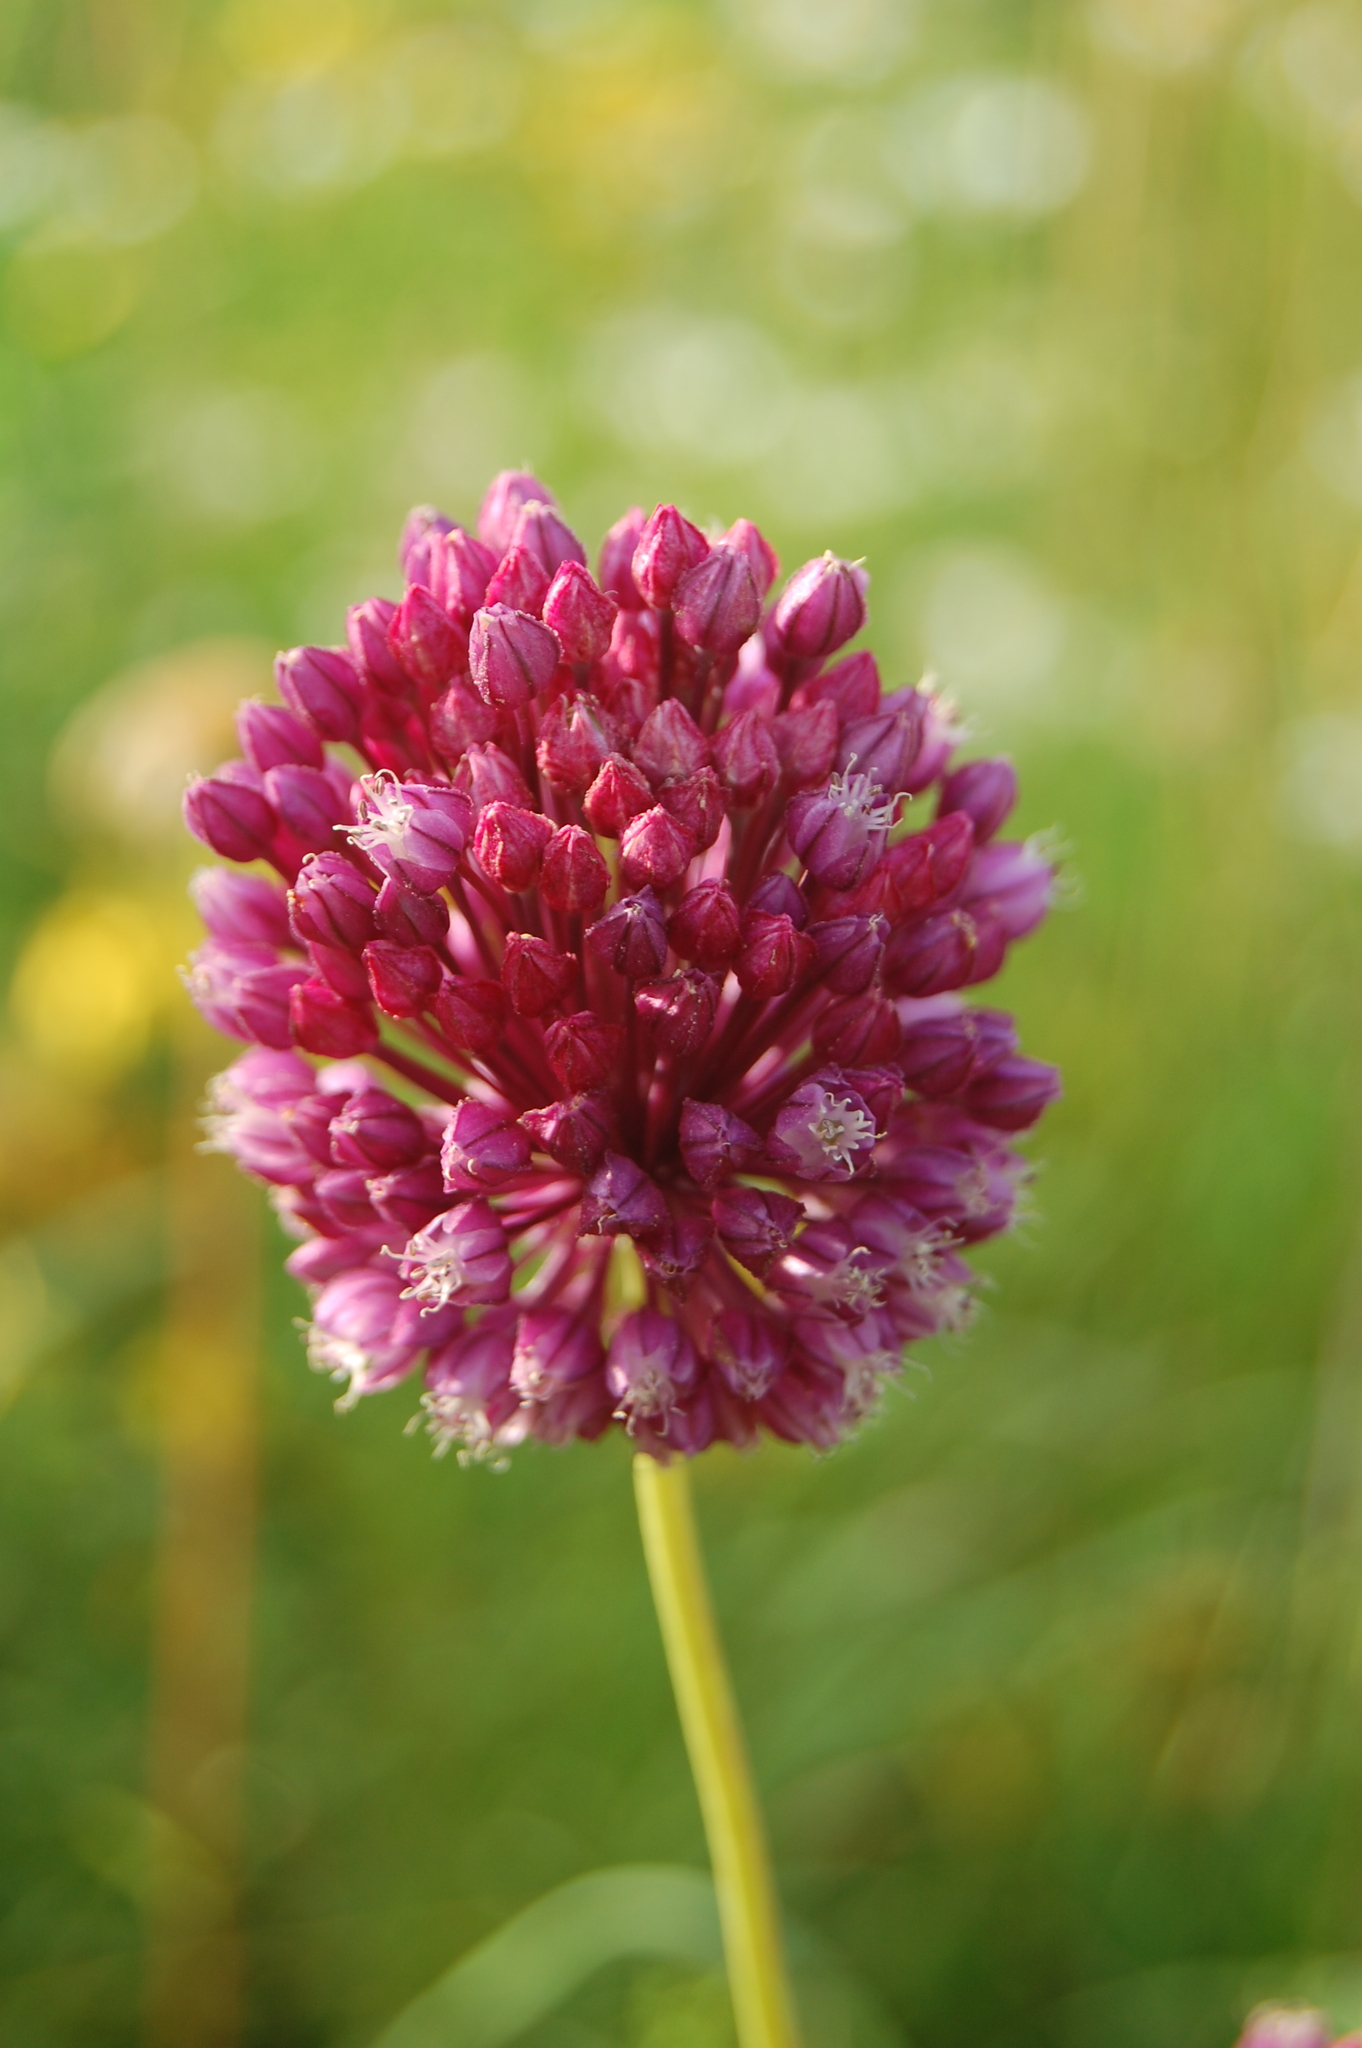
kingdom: Plantae
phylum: Tracheophyta
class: Liliopsida
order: Asparagales
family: Amaryllidaceae
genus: Allium
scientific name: Allium rotundum
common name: Sand leek
